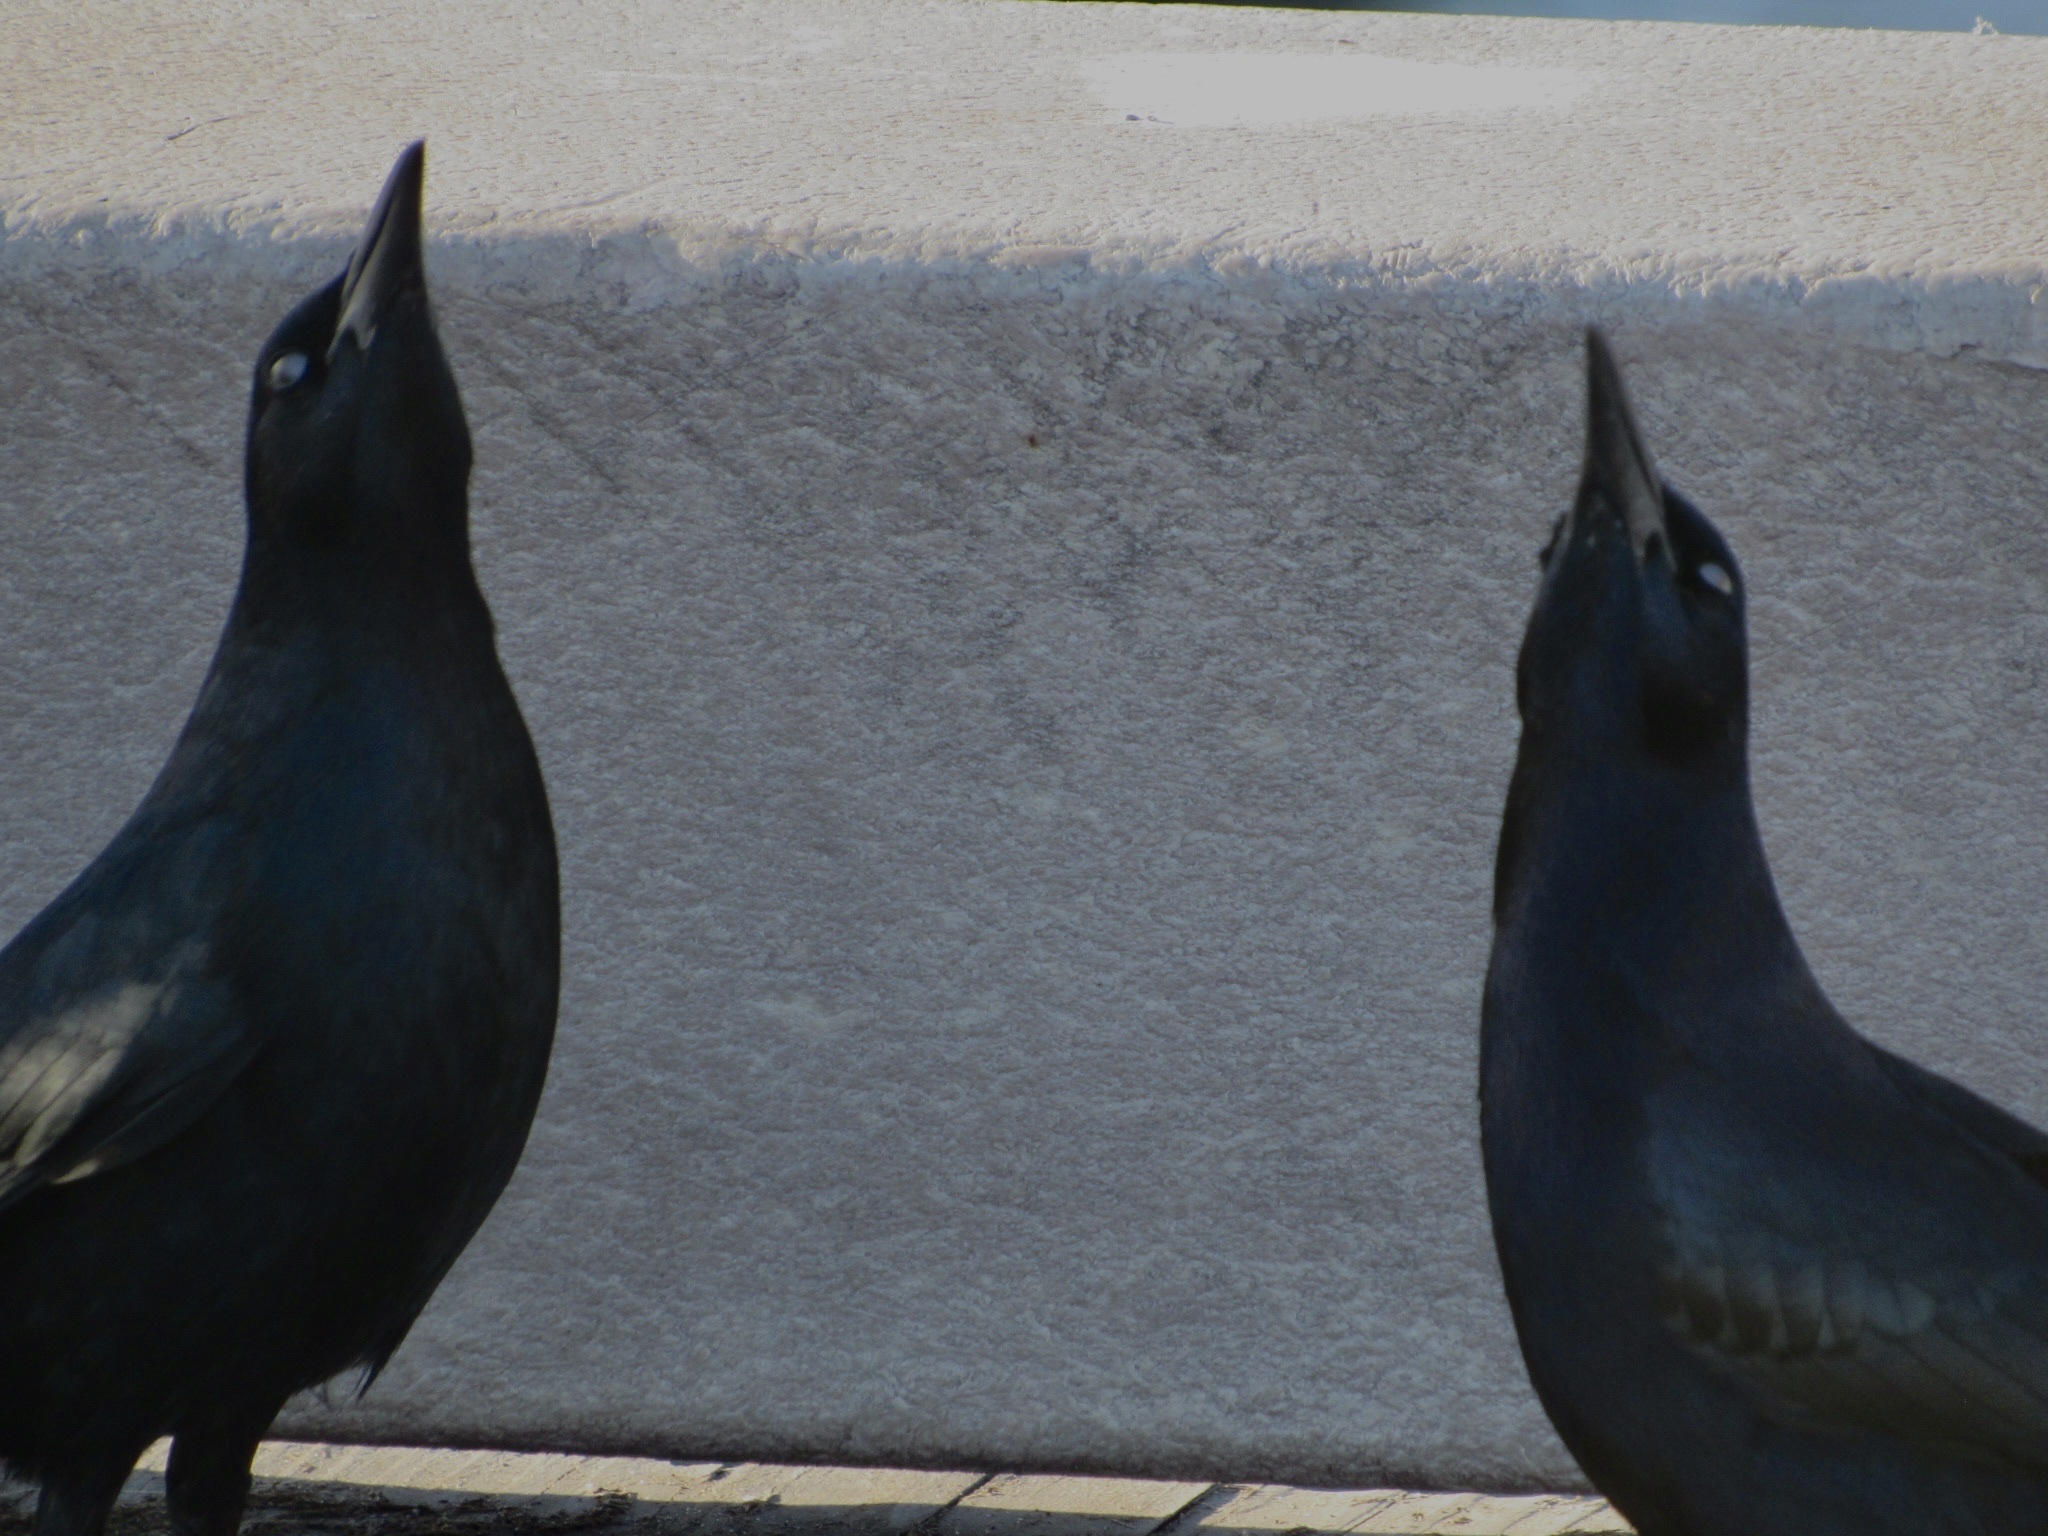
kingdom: Animalia
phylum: Chordata
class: Aves
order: Passeriformes
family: Icteridae
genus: Quiscalus
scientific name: Quiscalus mexicanus
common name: Great-tailed grackle
